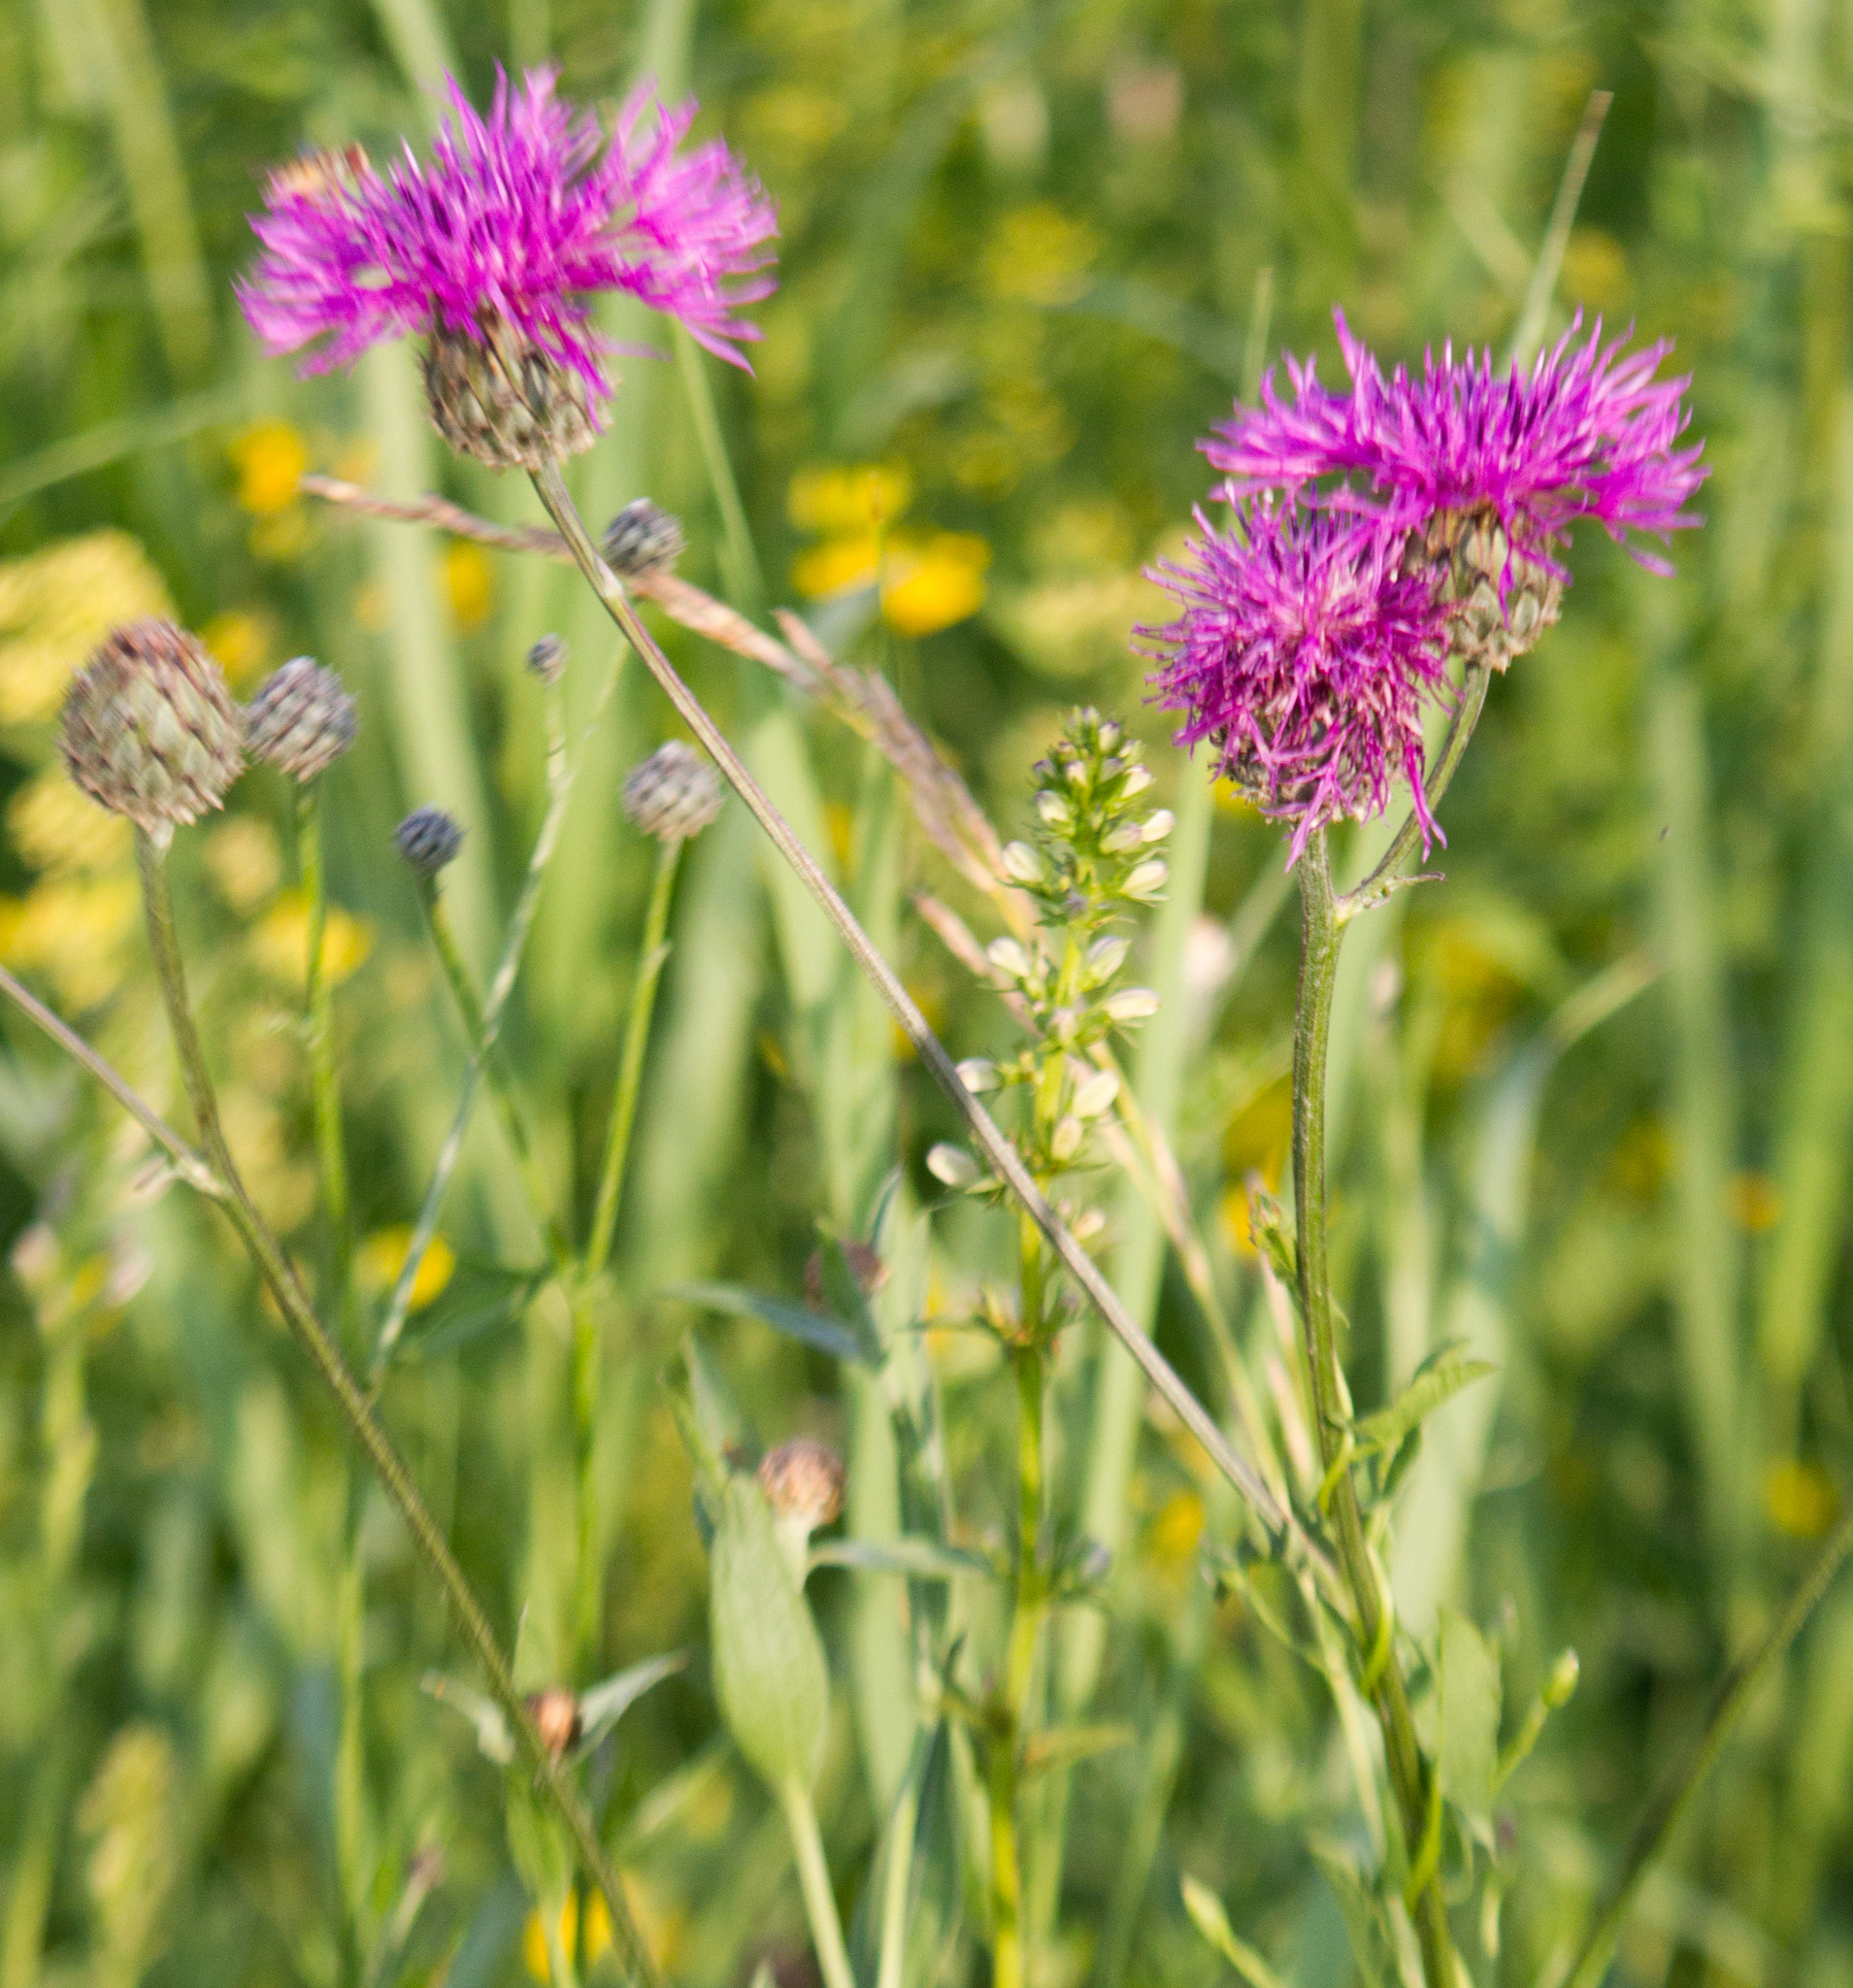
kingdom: Plantae
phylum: Tracheophyta
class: Magnoliopsida
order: Asterales
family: Asteraceae
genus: Centaurea
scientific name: Centaurea scabiosa
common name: Greater knapweed
